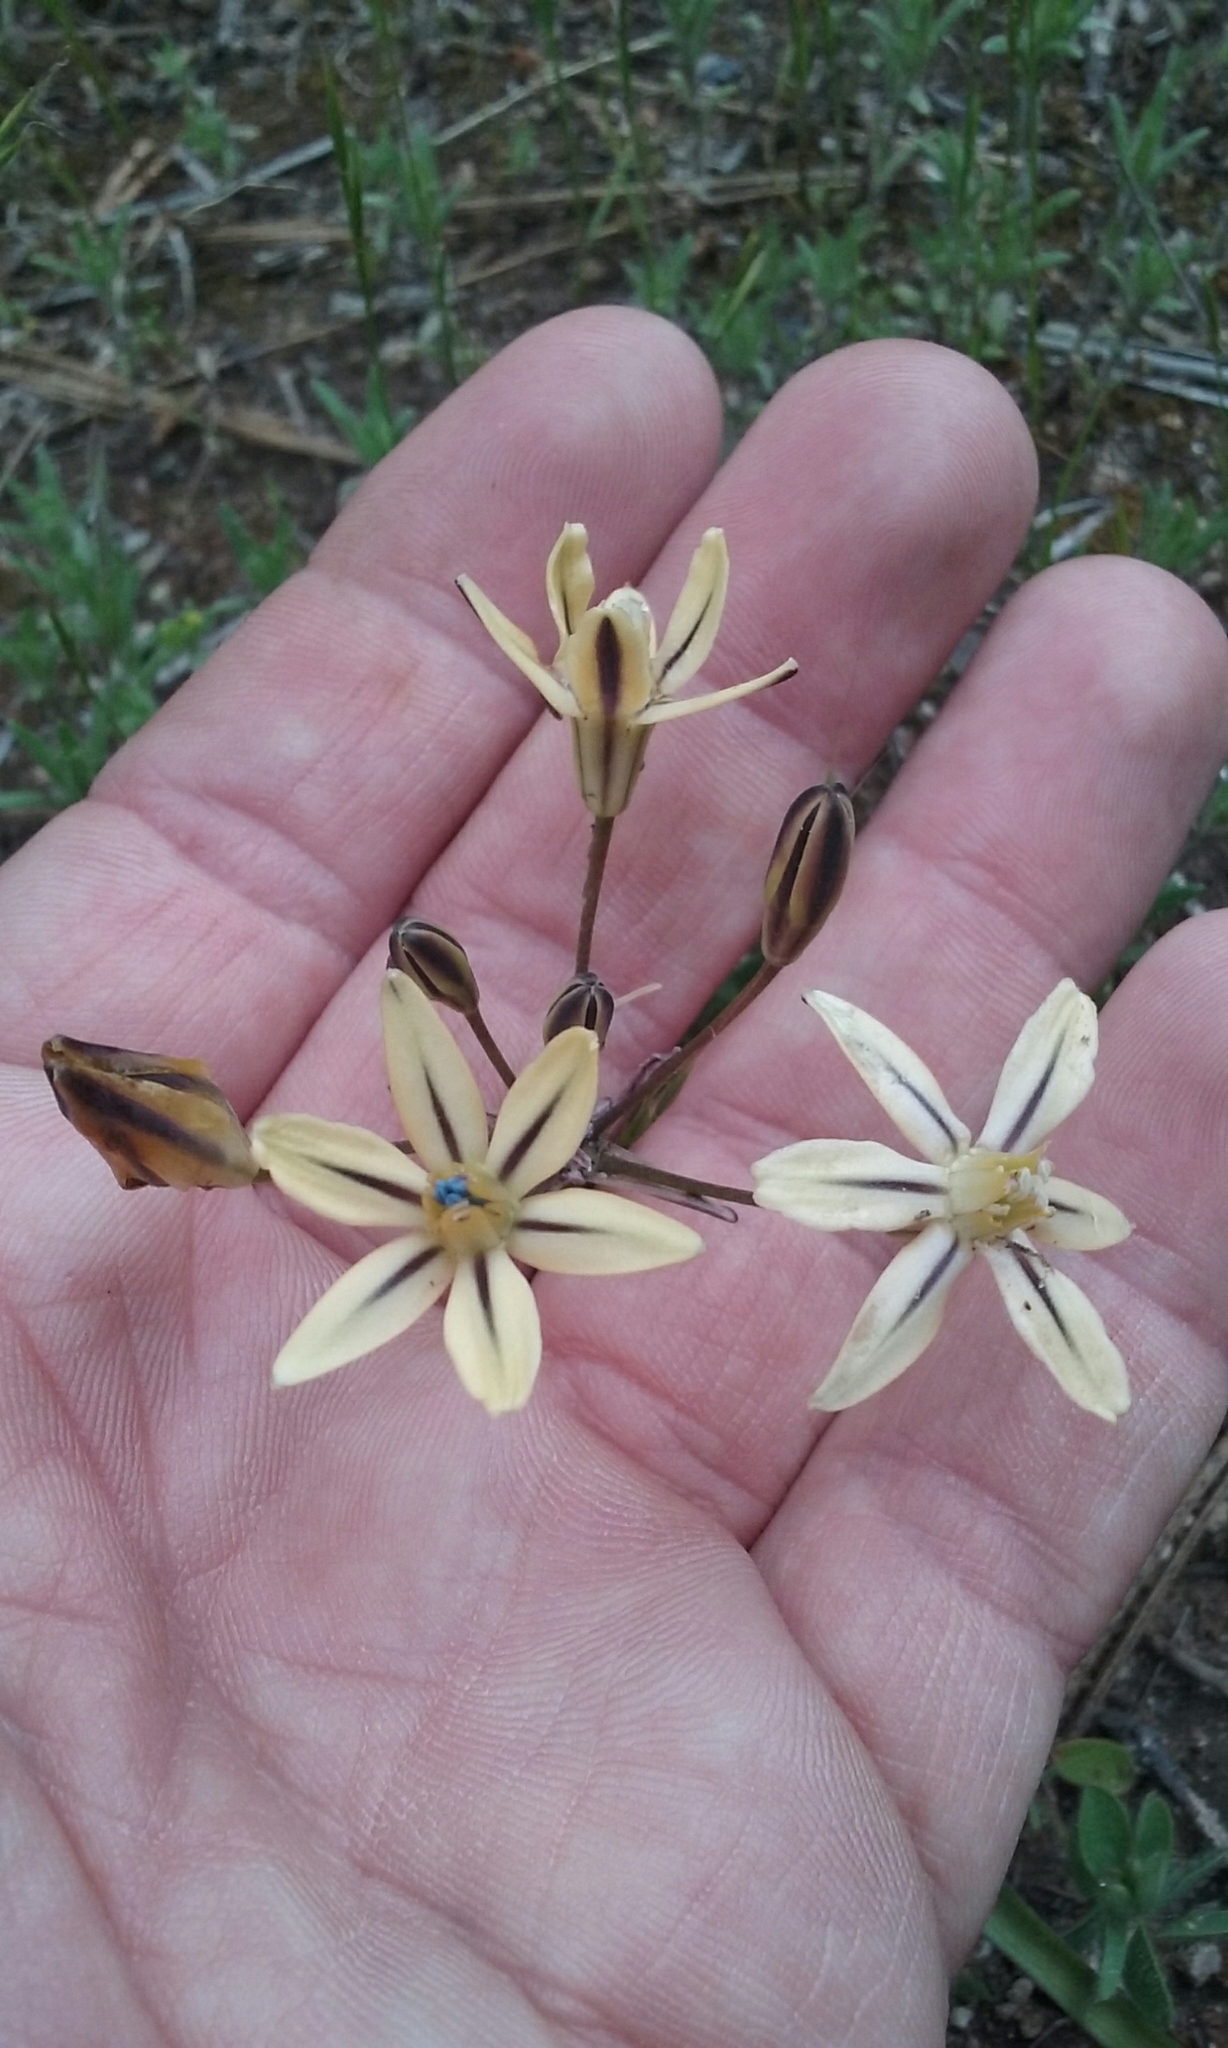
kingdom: Plantae
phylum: Tracheophyta
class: Liliopsida
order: Asparagales
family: Asparagaceae
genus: Triteleia
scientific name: Triteleia ixioides
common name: Yellow-brodiaea
